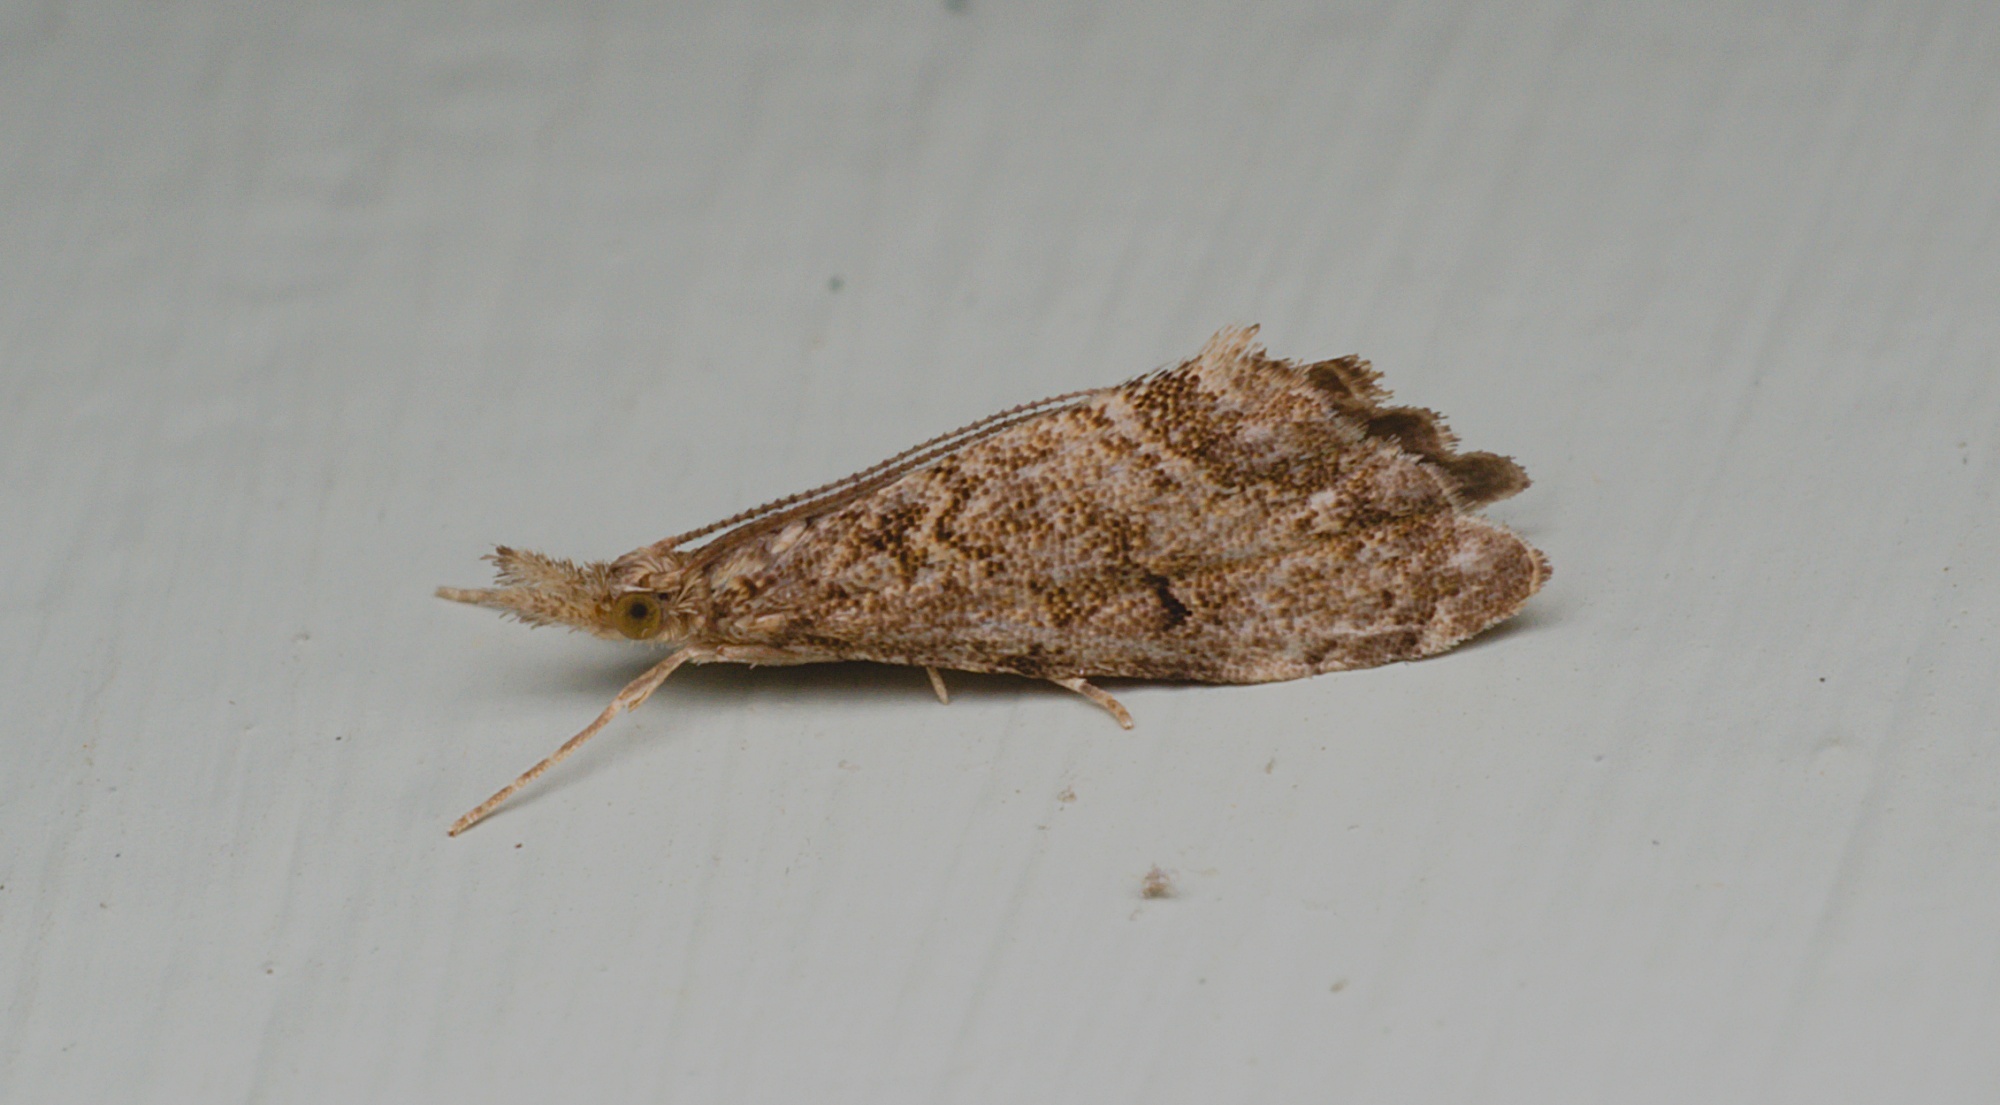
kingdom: Animalia
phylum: Arthropoda
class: Insecta
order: Lepidoptera
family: Crambidae
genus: Glaucocharis
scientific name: Glaucocharis elaina
